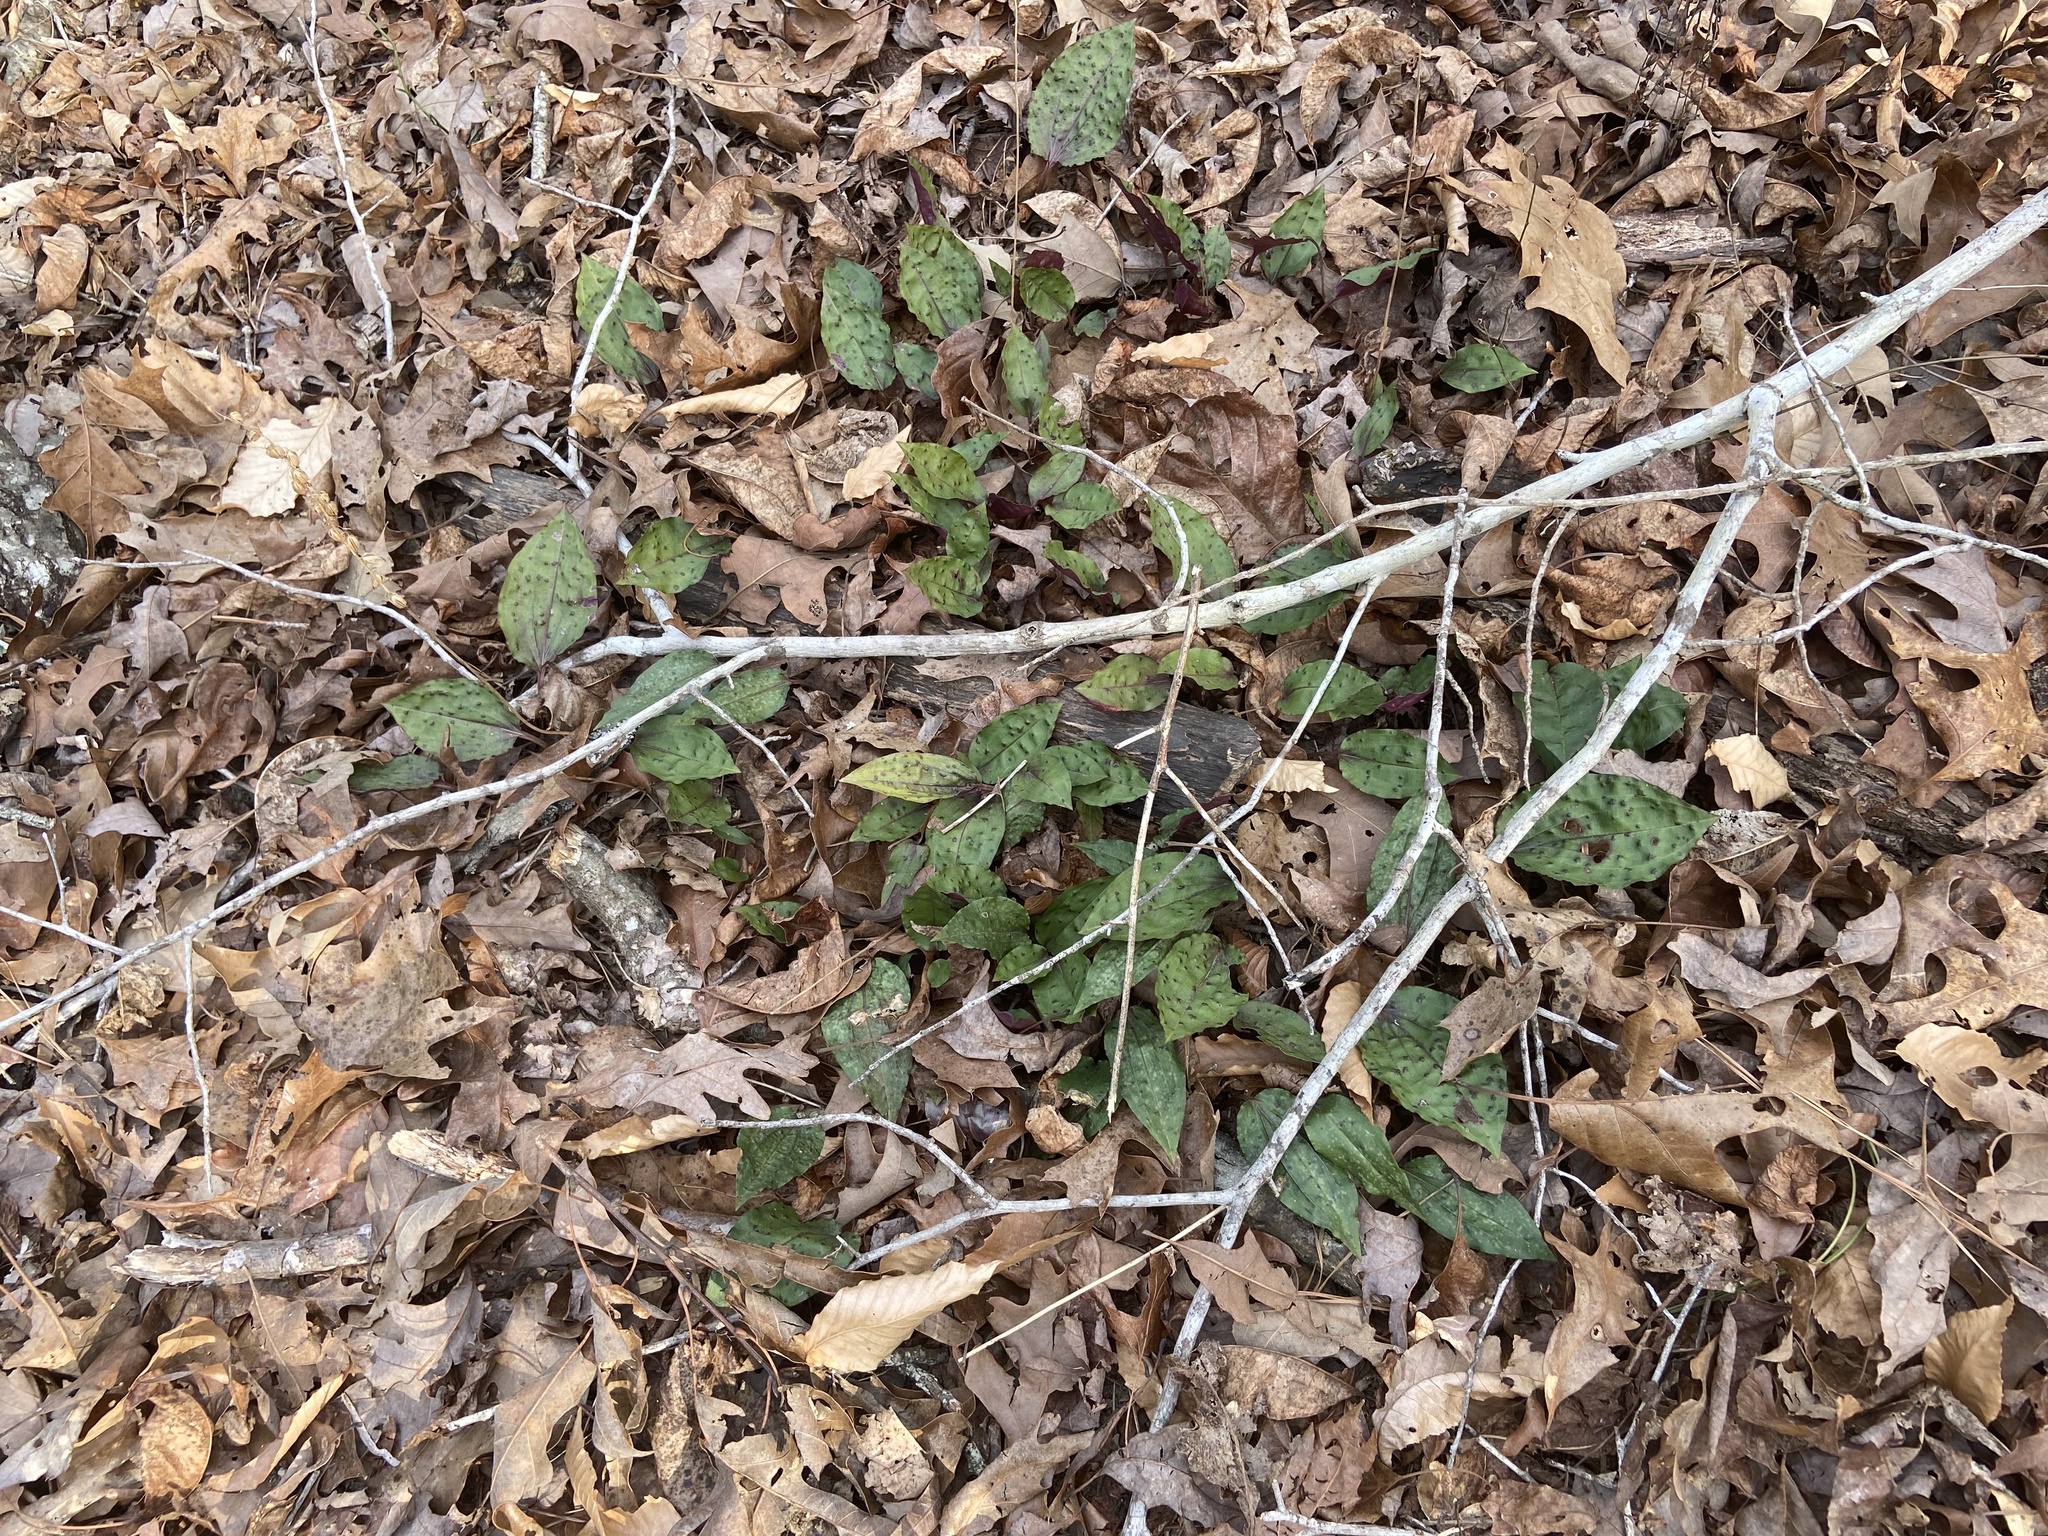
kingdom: Plantae
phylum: Tracheophyta
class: Liliopsida
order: Asparagales
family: Orchidaceae
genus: Tipularia
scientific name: Tipularia discolor
